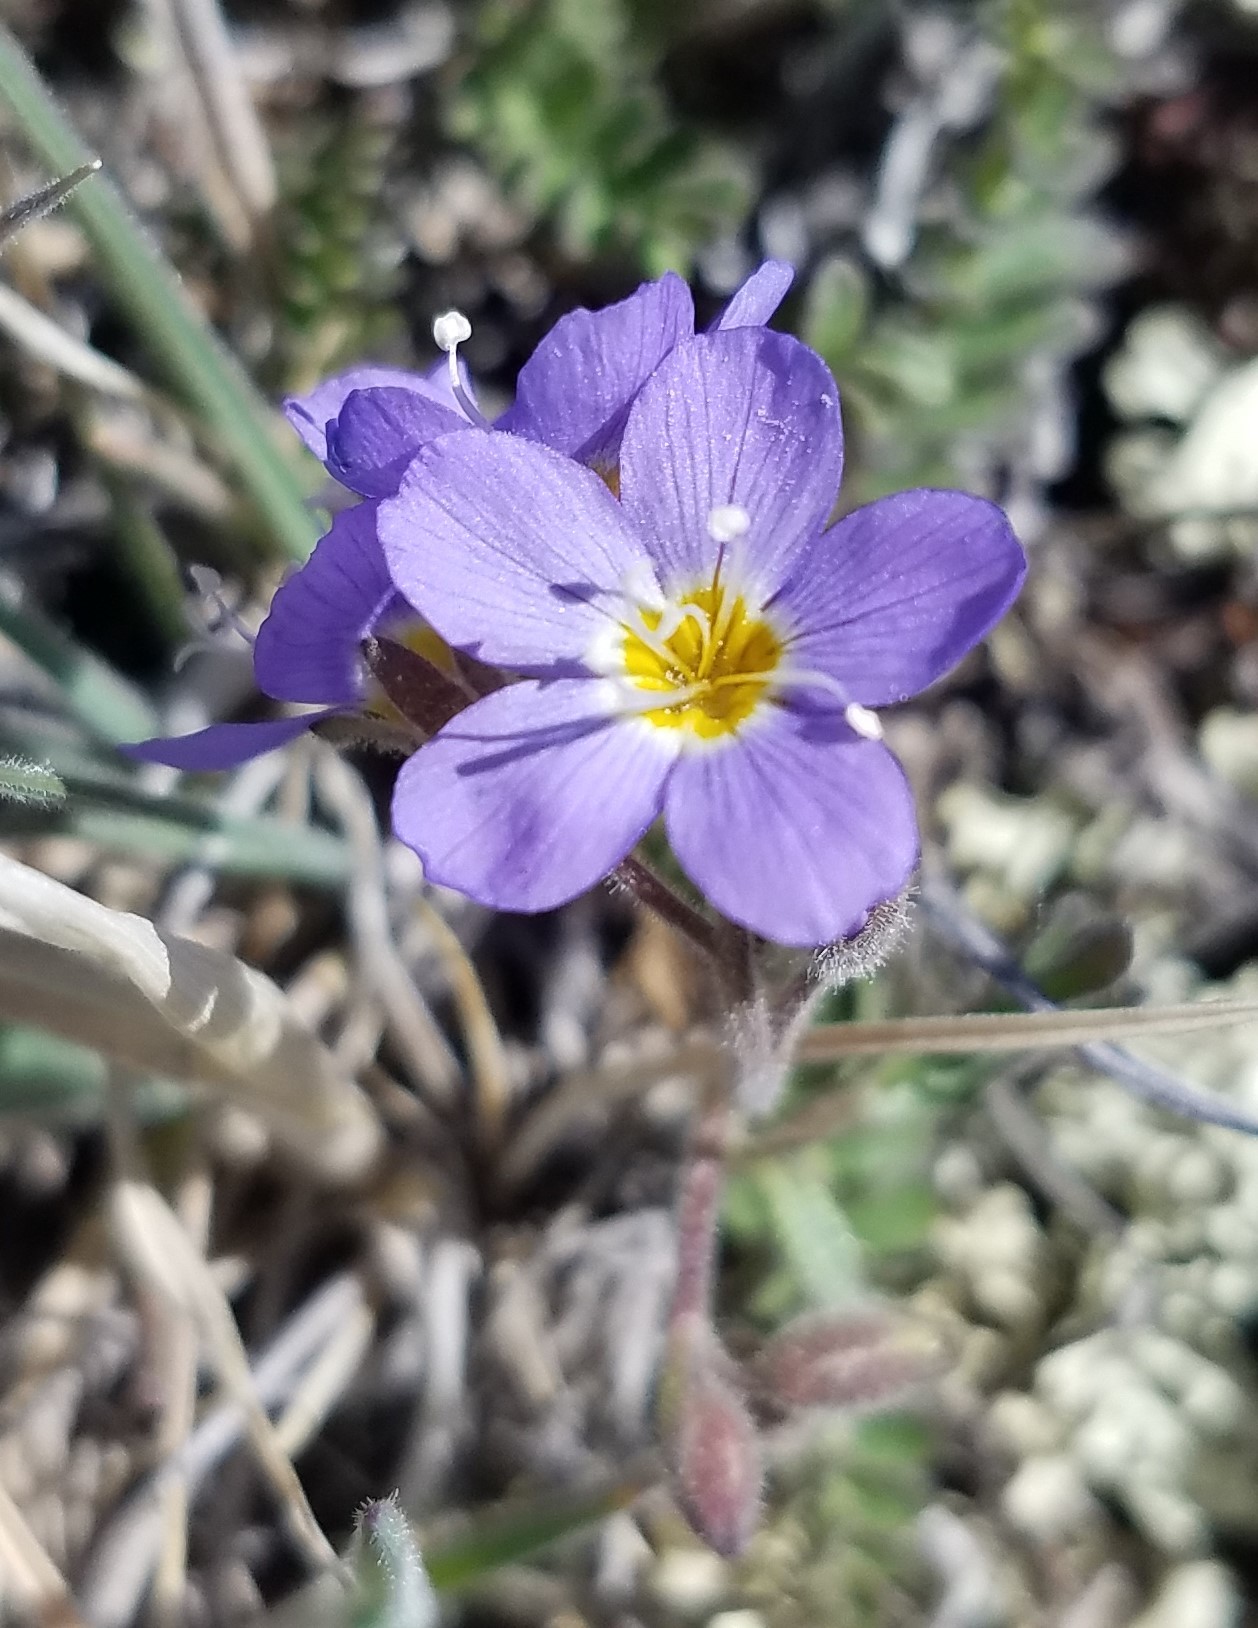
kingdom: Plantae
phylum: Tracheophyta
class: Magnoliopsida
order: Ericales
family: Polemoniaceae
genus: Polemonium
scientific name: Polemonium pulcherrimum
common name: Short jacob's-ladder
